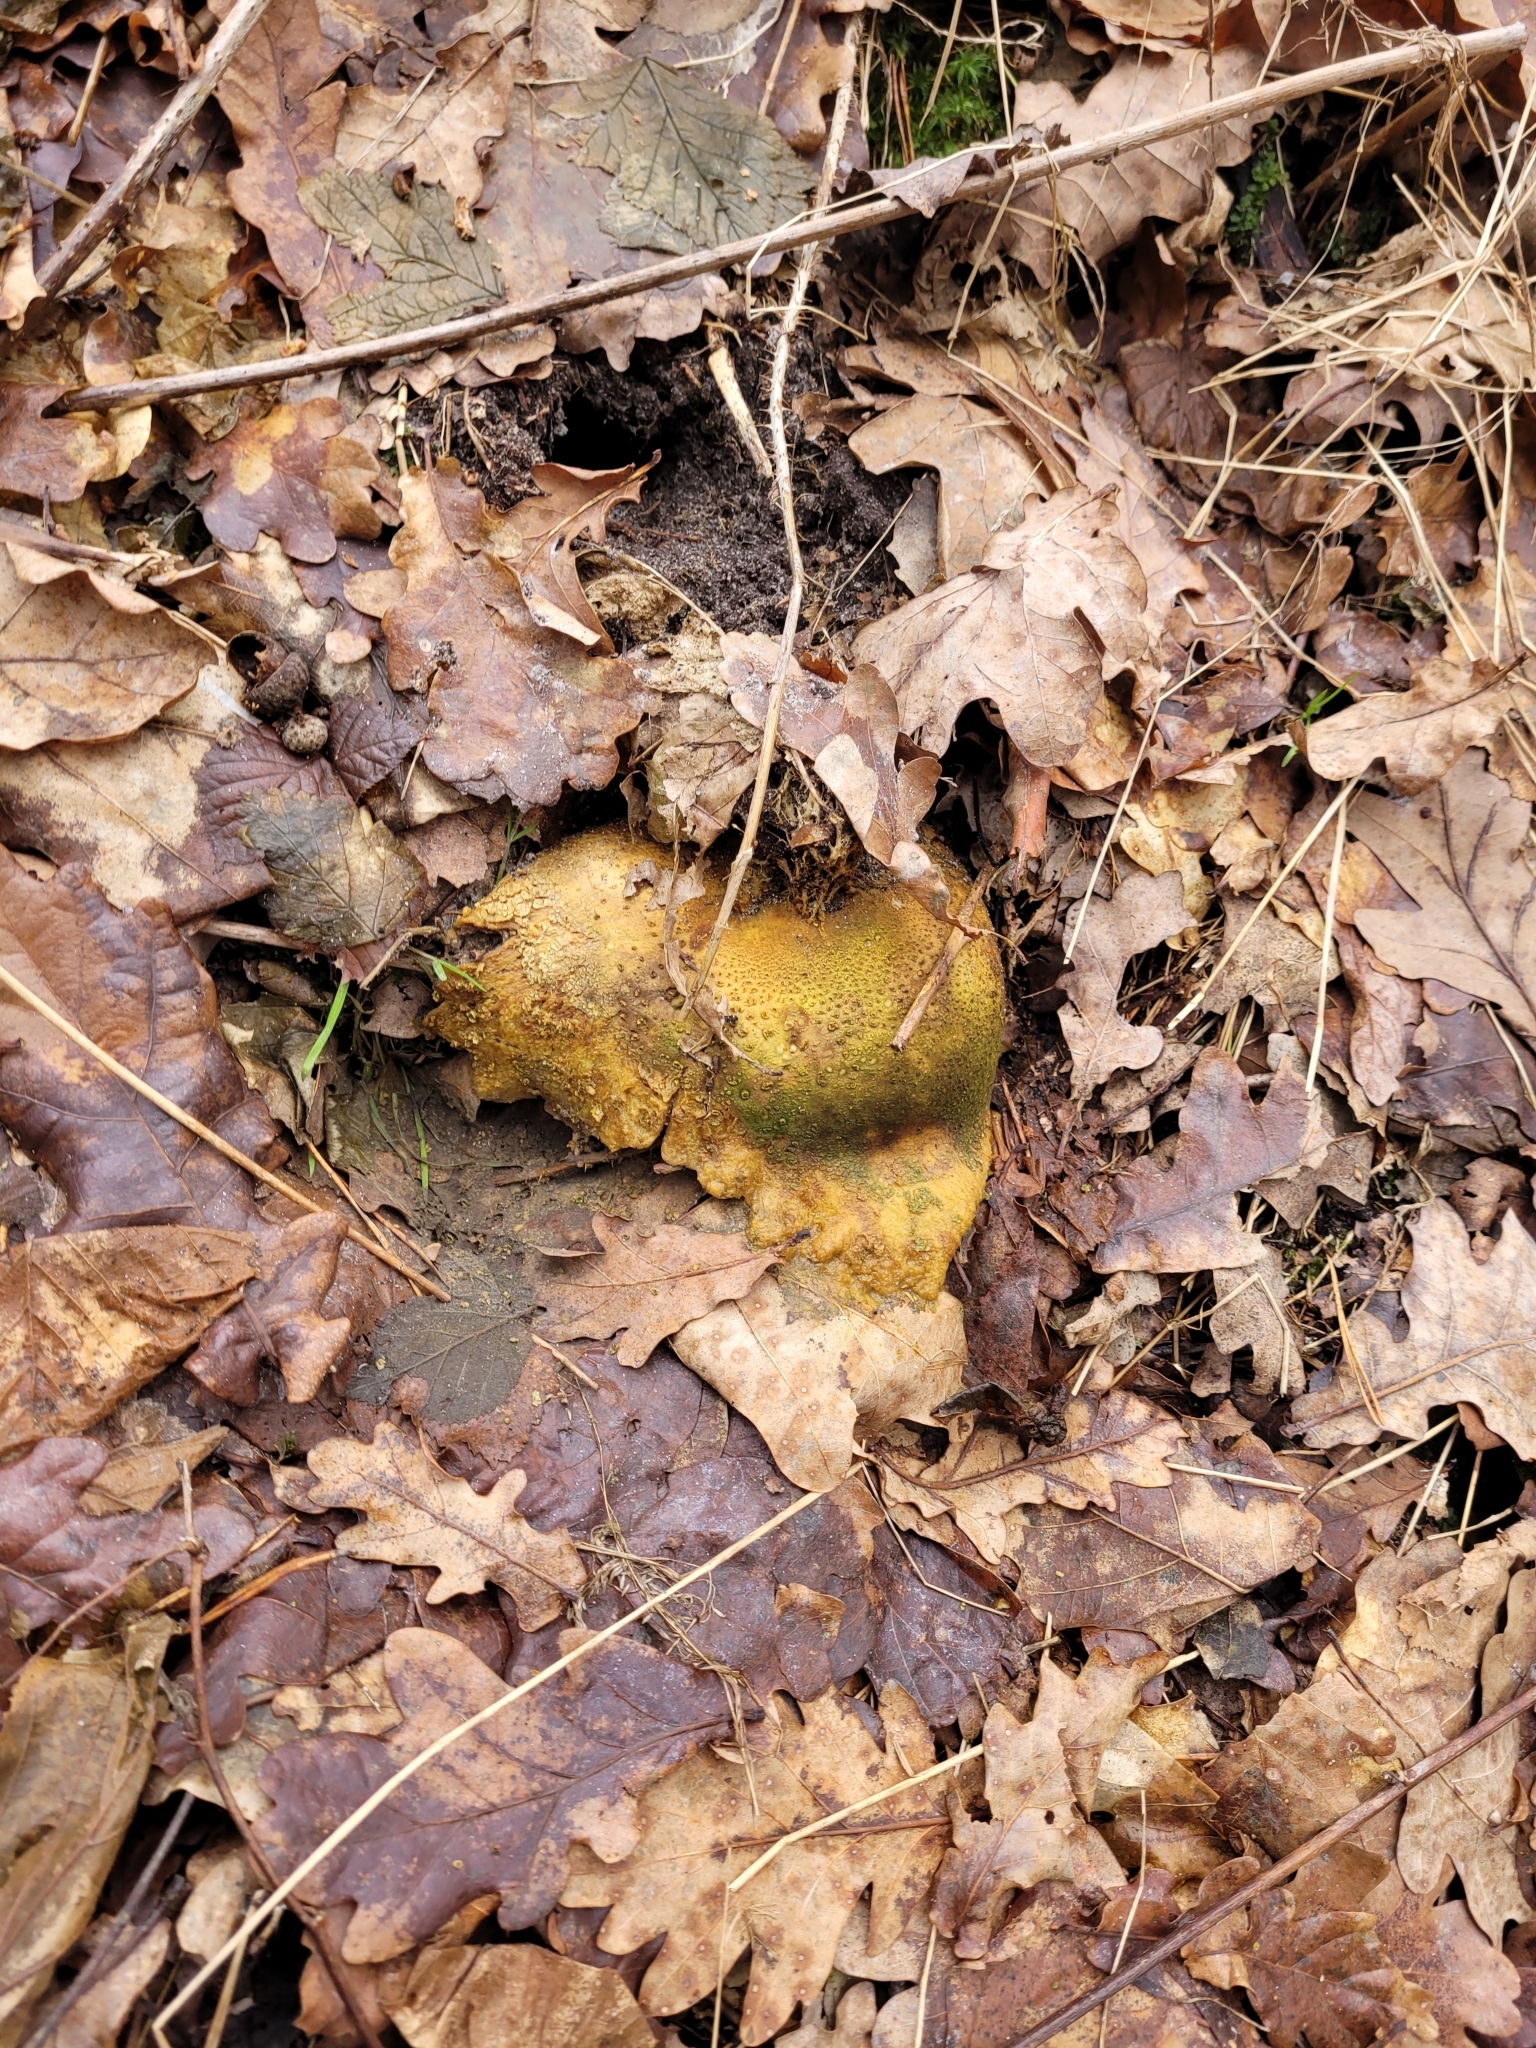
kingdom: Fungi
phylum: Basidiomycota
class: Agaricomycetes
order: Boletales
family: Sclerodermataceae
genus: Scleroderma
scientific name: Scleroderma citrinum
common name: Common earthball
